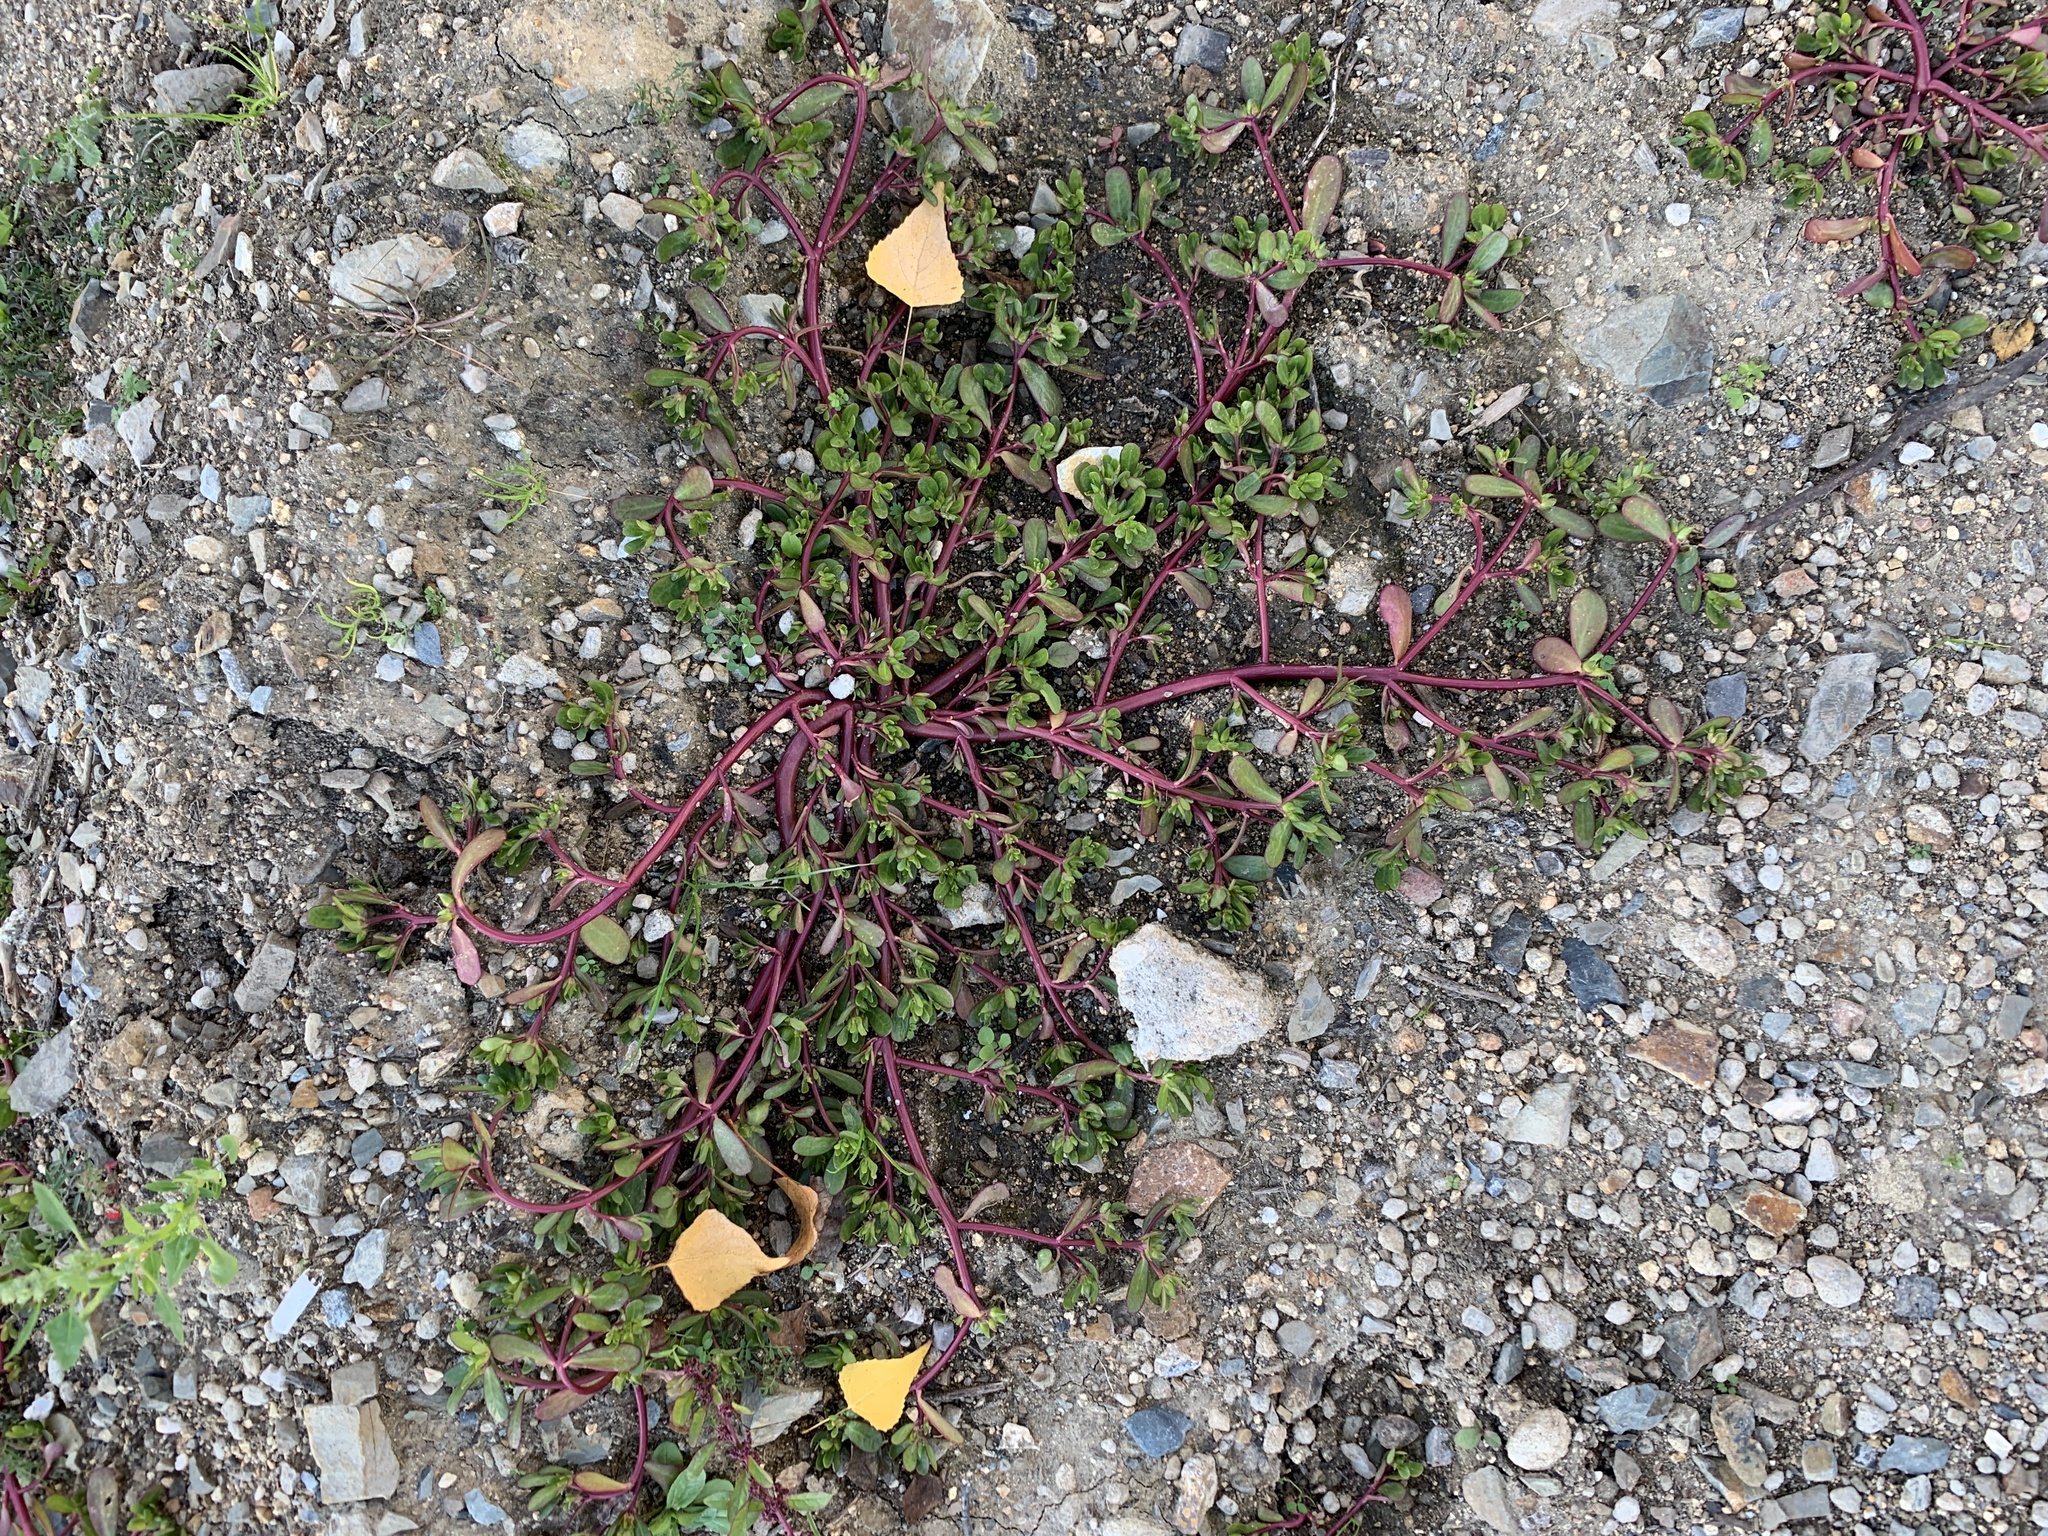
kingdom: Plantae
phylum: Tracheophyta
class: Magnoliopsida
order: Caryophyllales
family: Portulacaceae
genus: Portulaca
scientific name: Portulaca oleracea
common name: Common purslane
